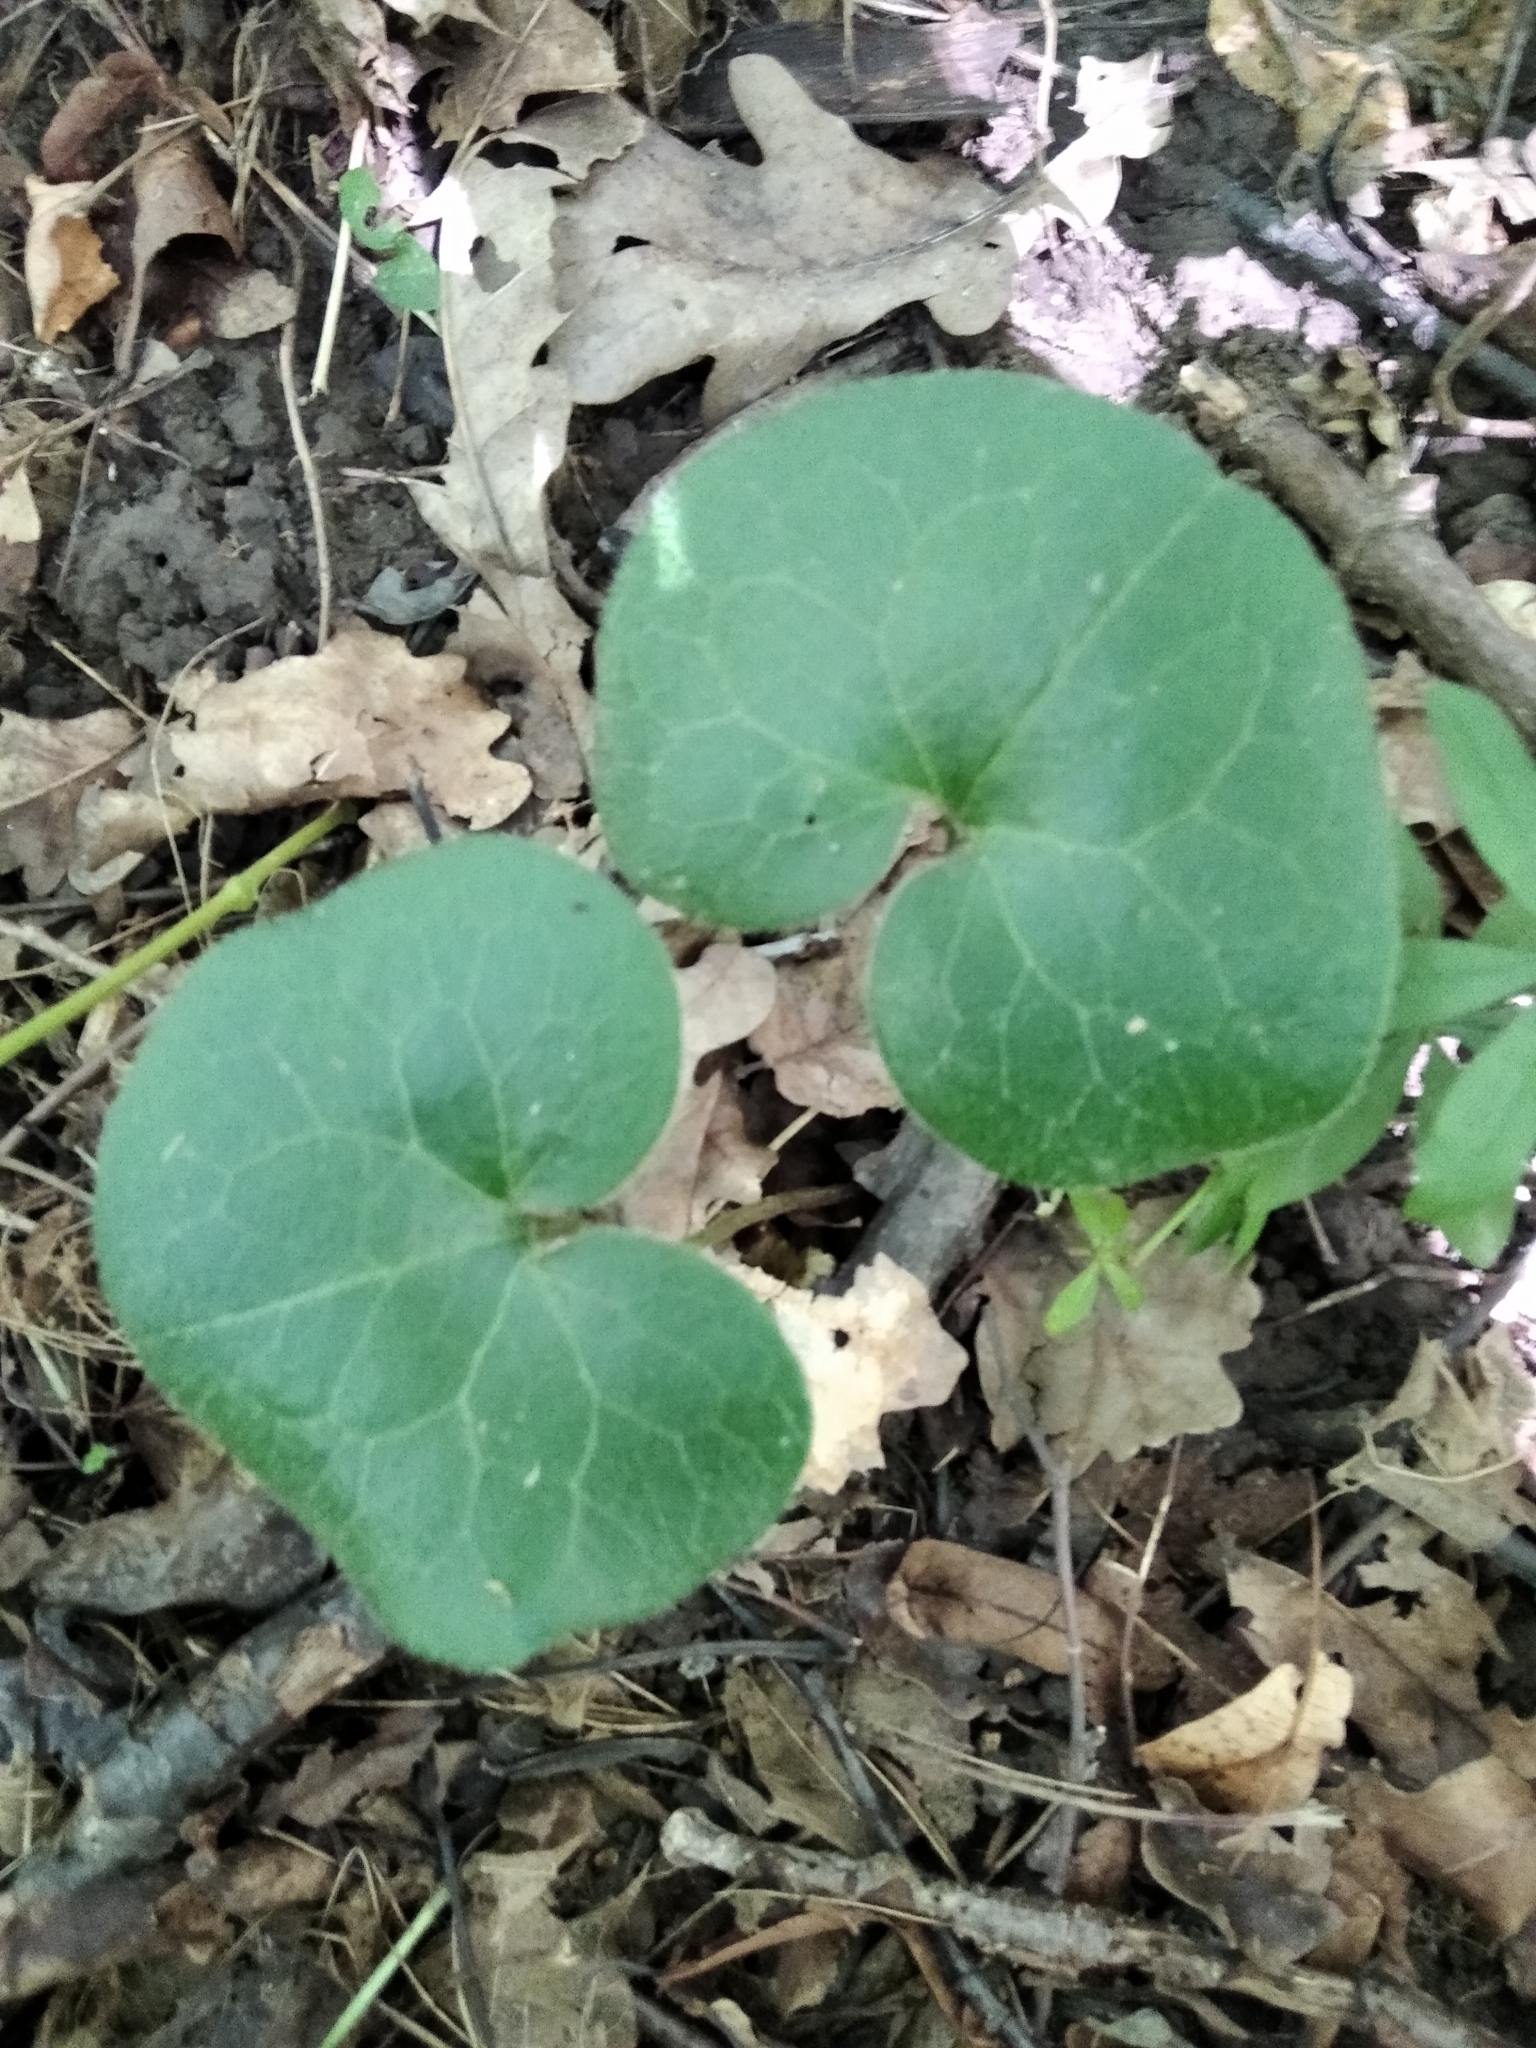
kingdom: Plantae
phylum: Tracheophyta
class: Magnoliopsida
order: Piperales
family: Aristolochiaceae
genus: Asarum
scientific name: Asarum europaeum
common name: Asarabacca
